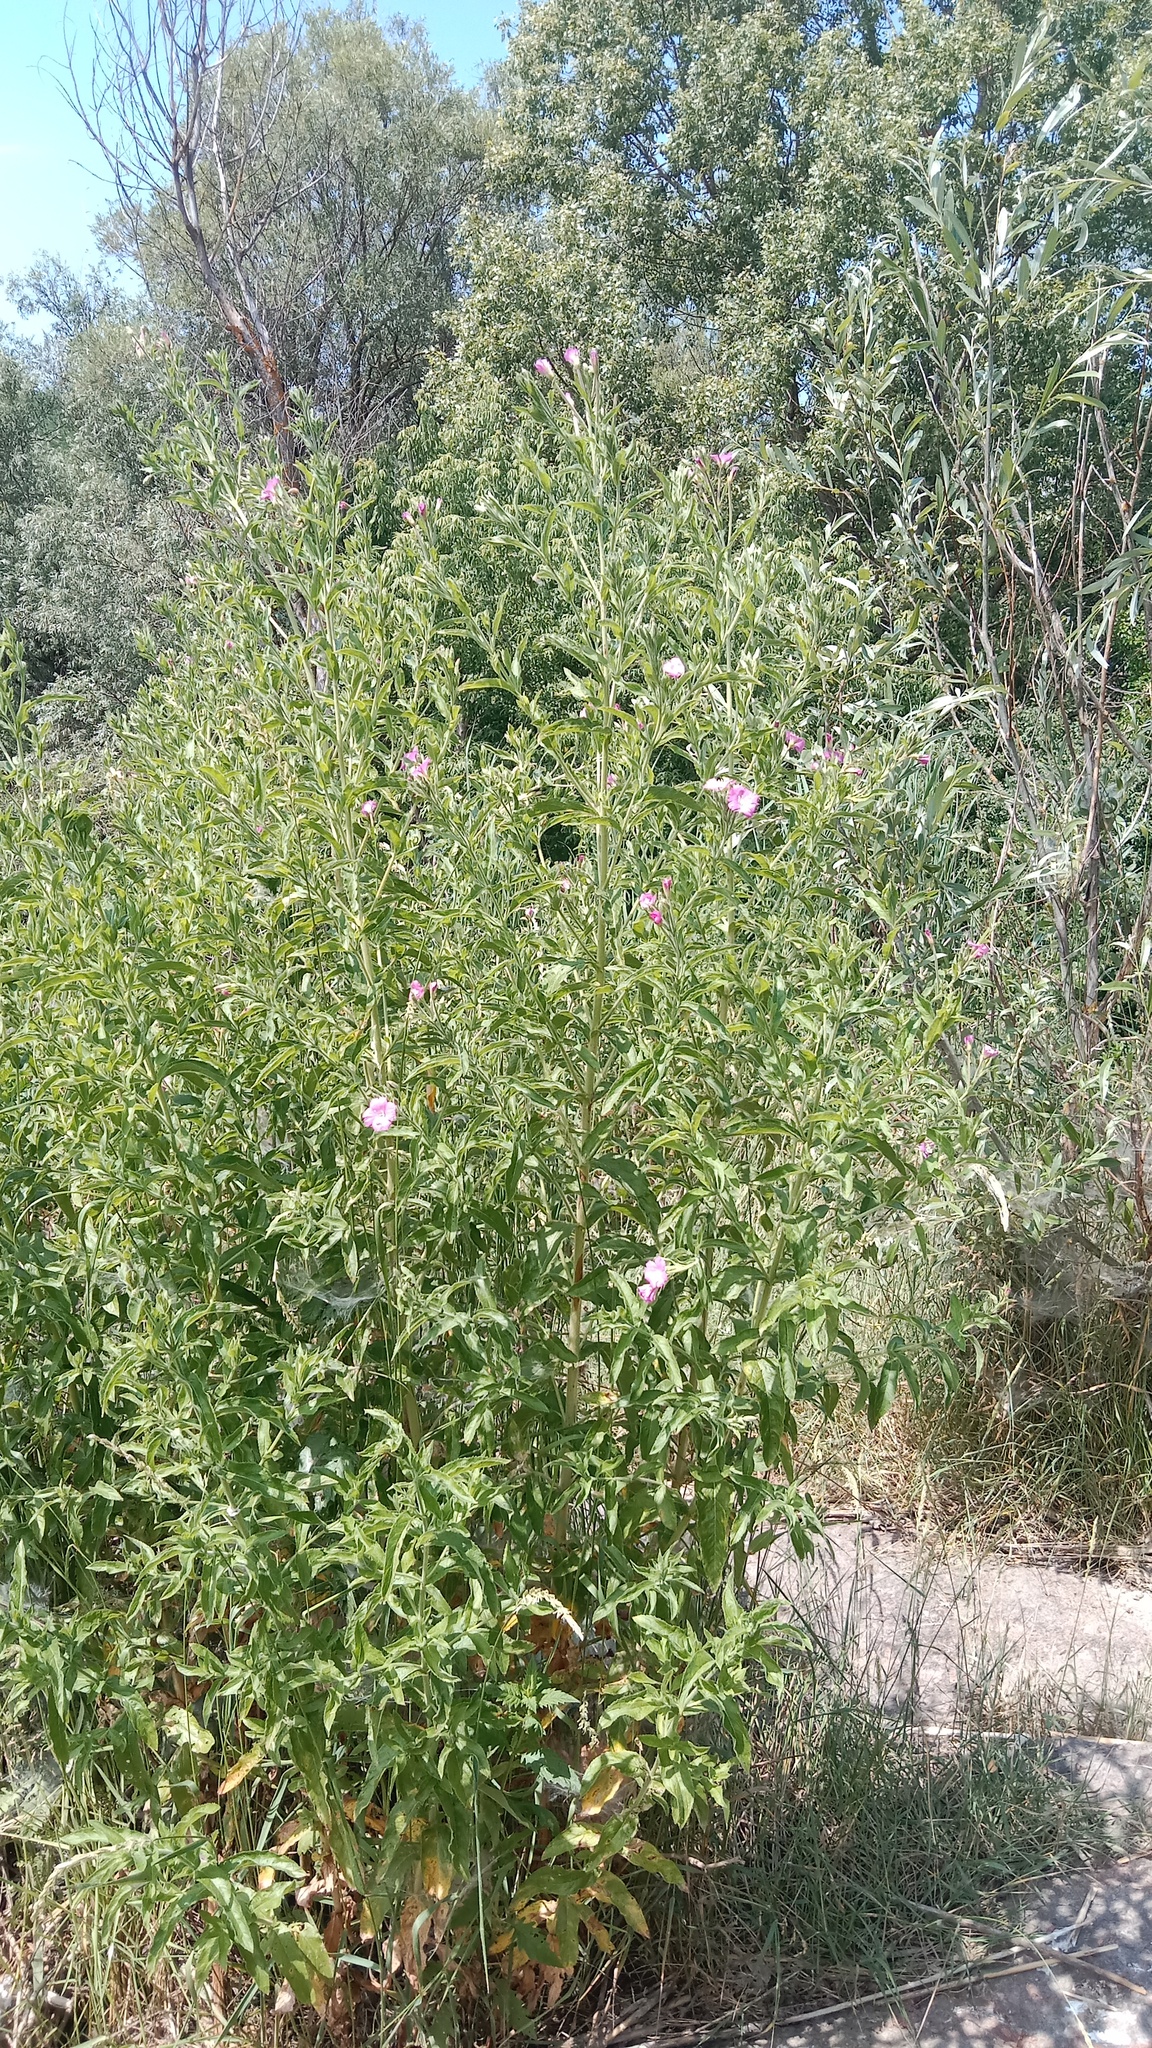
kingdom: Plantae
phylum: Tracheophyta
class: Magnoliopsida
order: Myrtales
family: Onagraceae
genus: Epilobium
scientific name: Epilobium hirsutum
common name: Great willowherb
